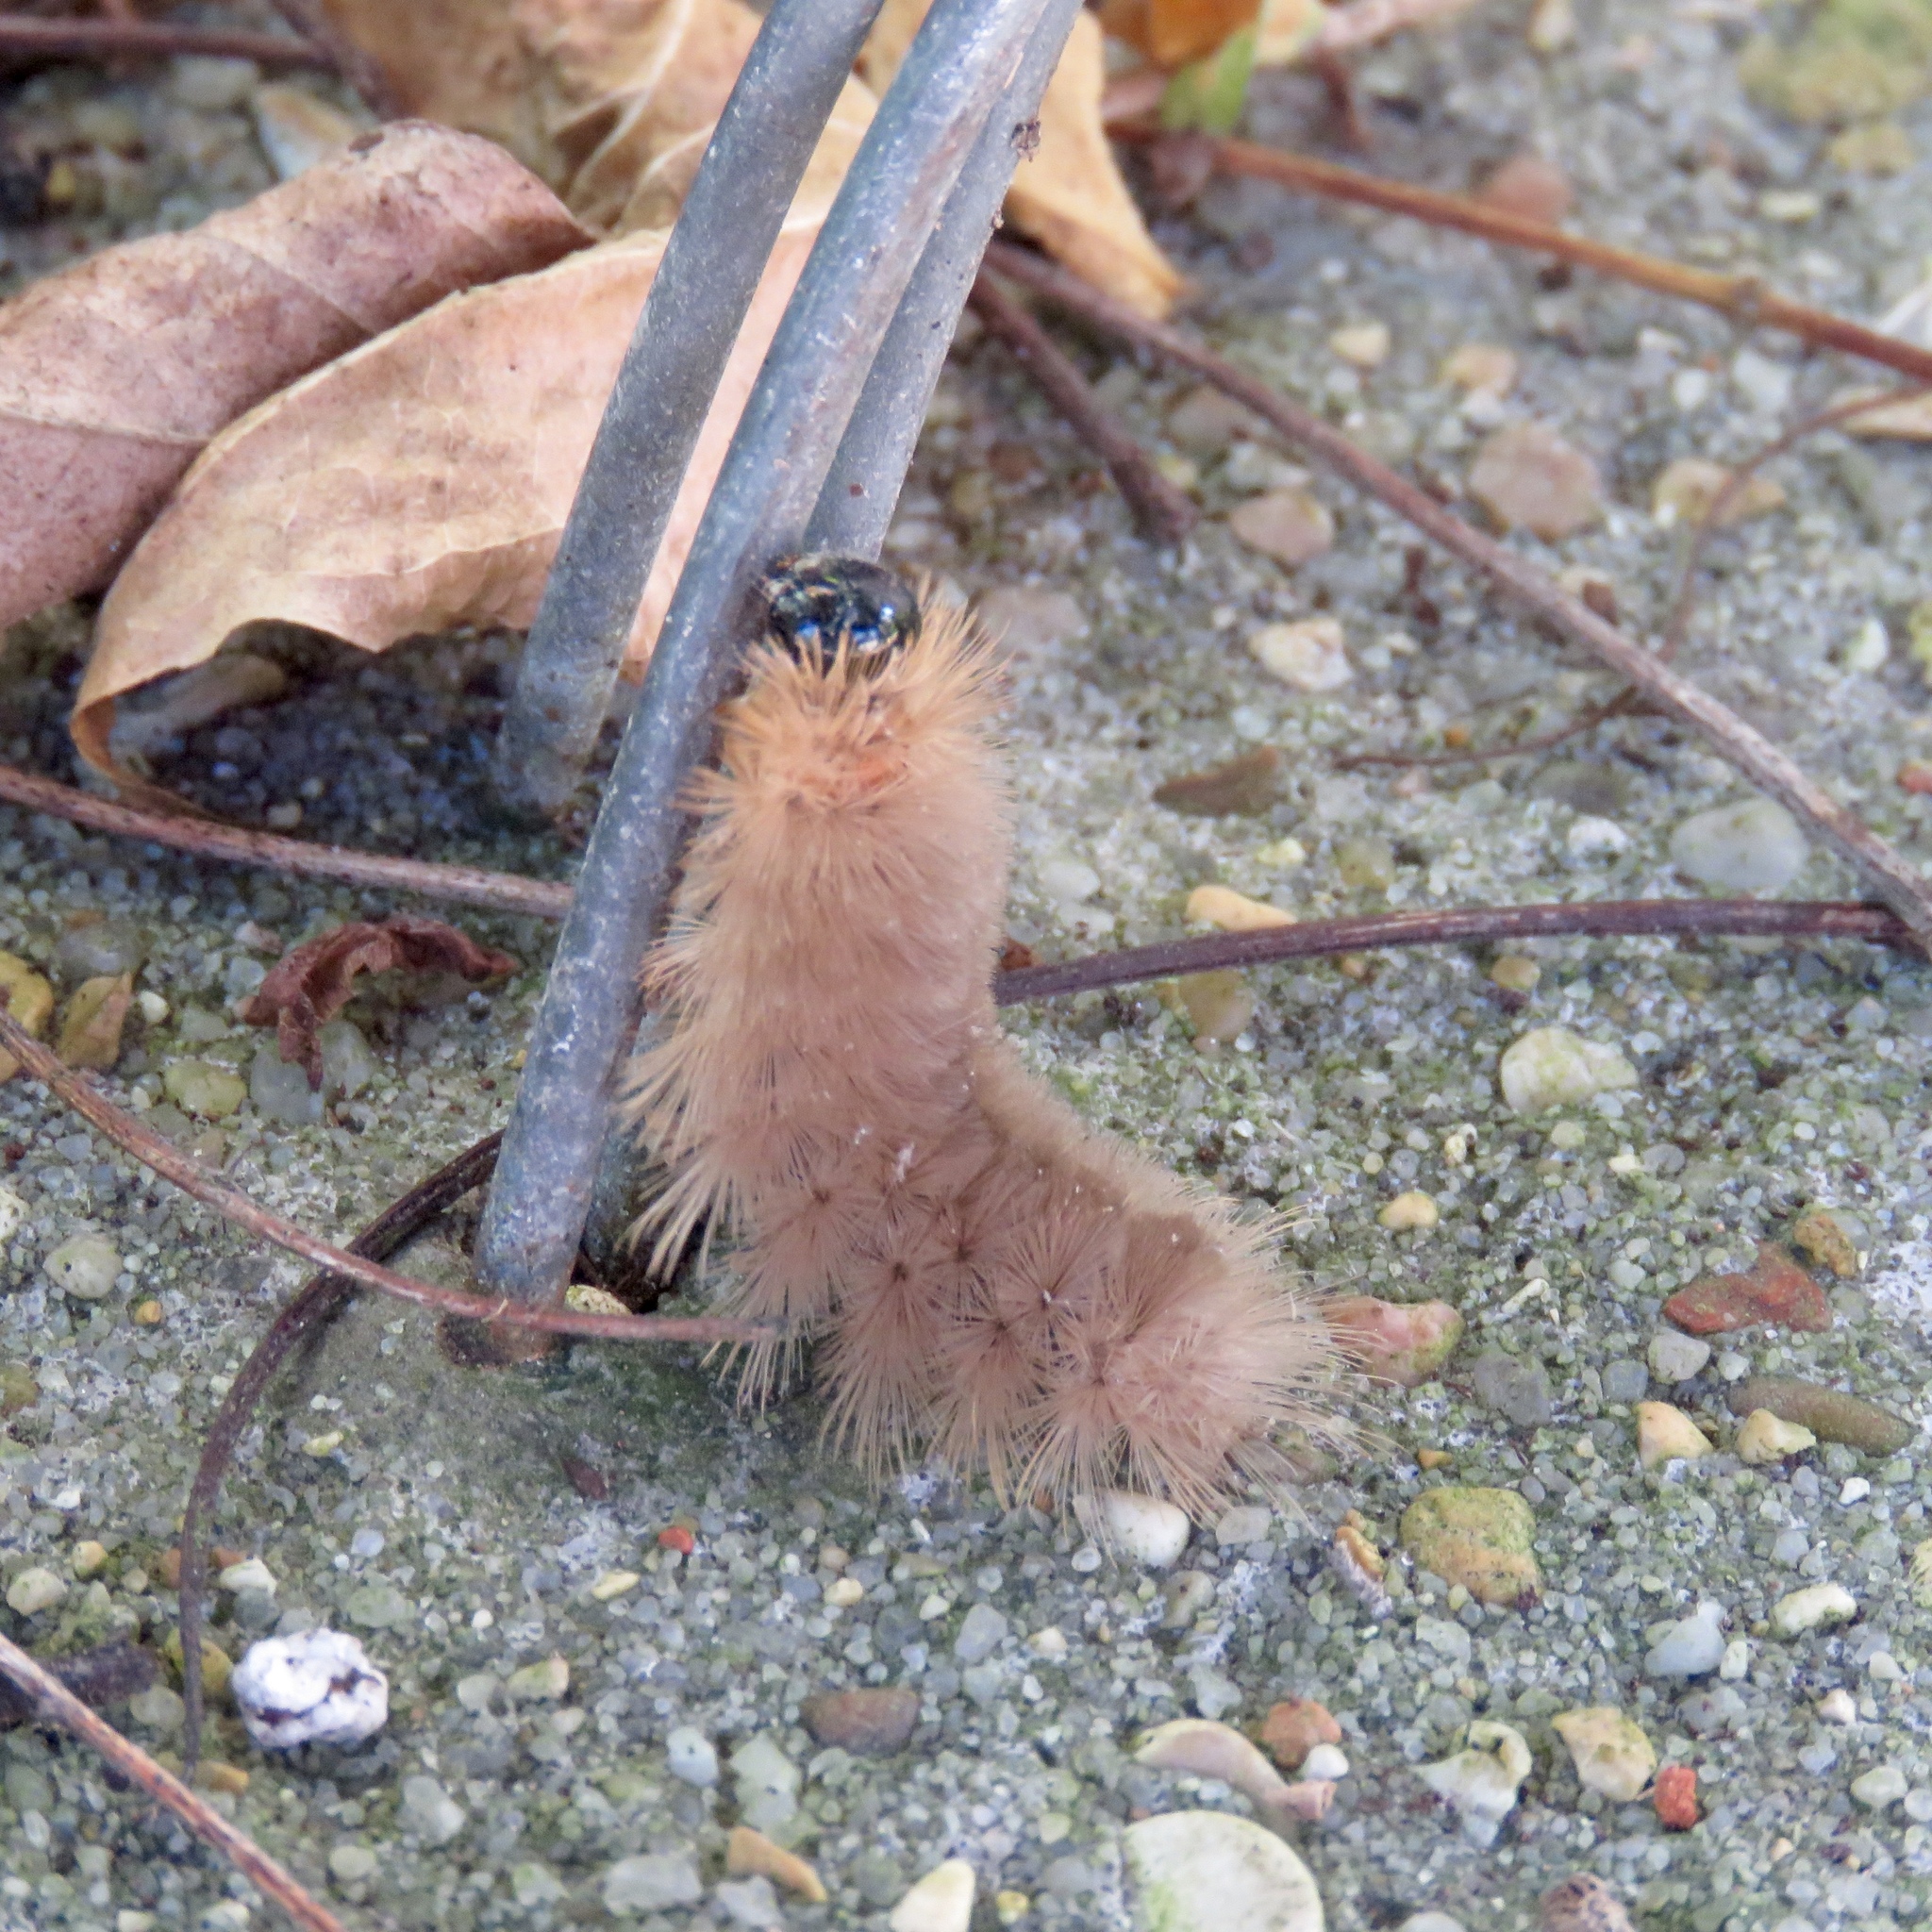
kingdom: Animalia
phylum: Arthropoda
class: Insecta
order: Lepidoptera
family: Erebidae
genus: Halysidota
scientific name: Halysidota tessellaris
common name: Banded tussock moth
